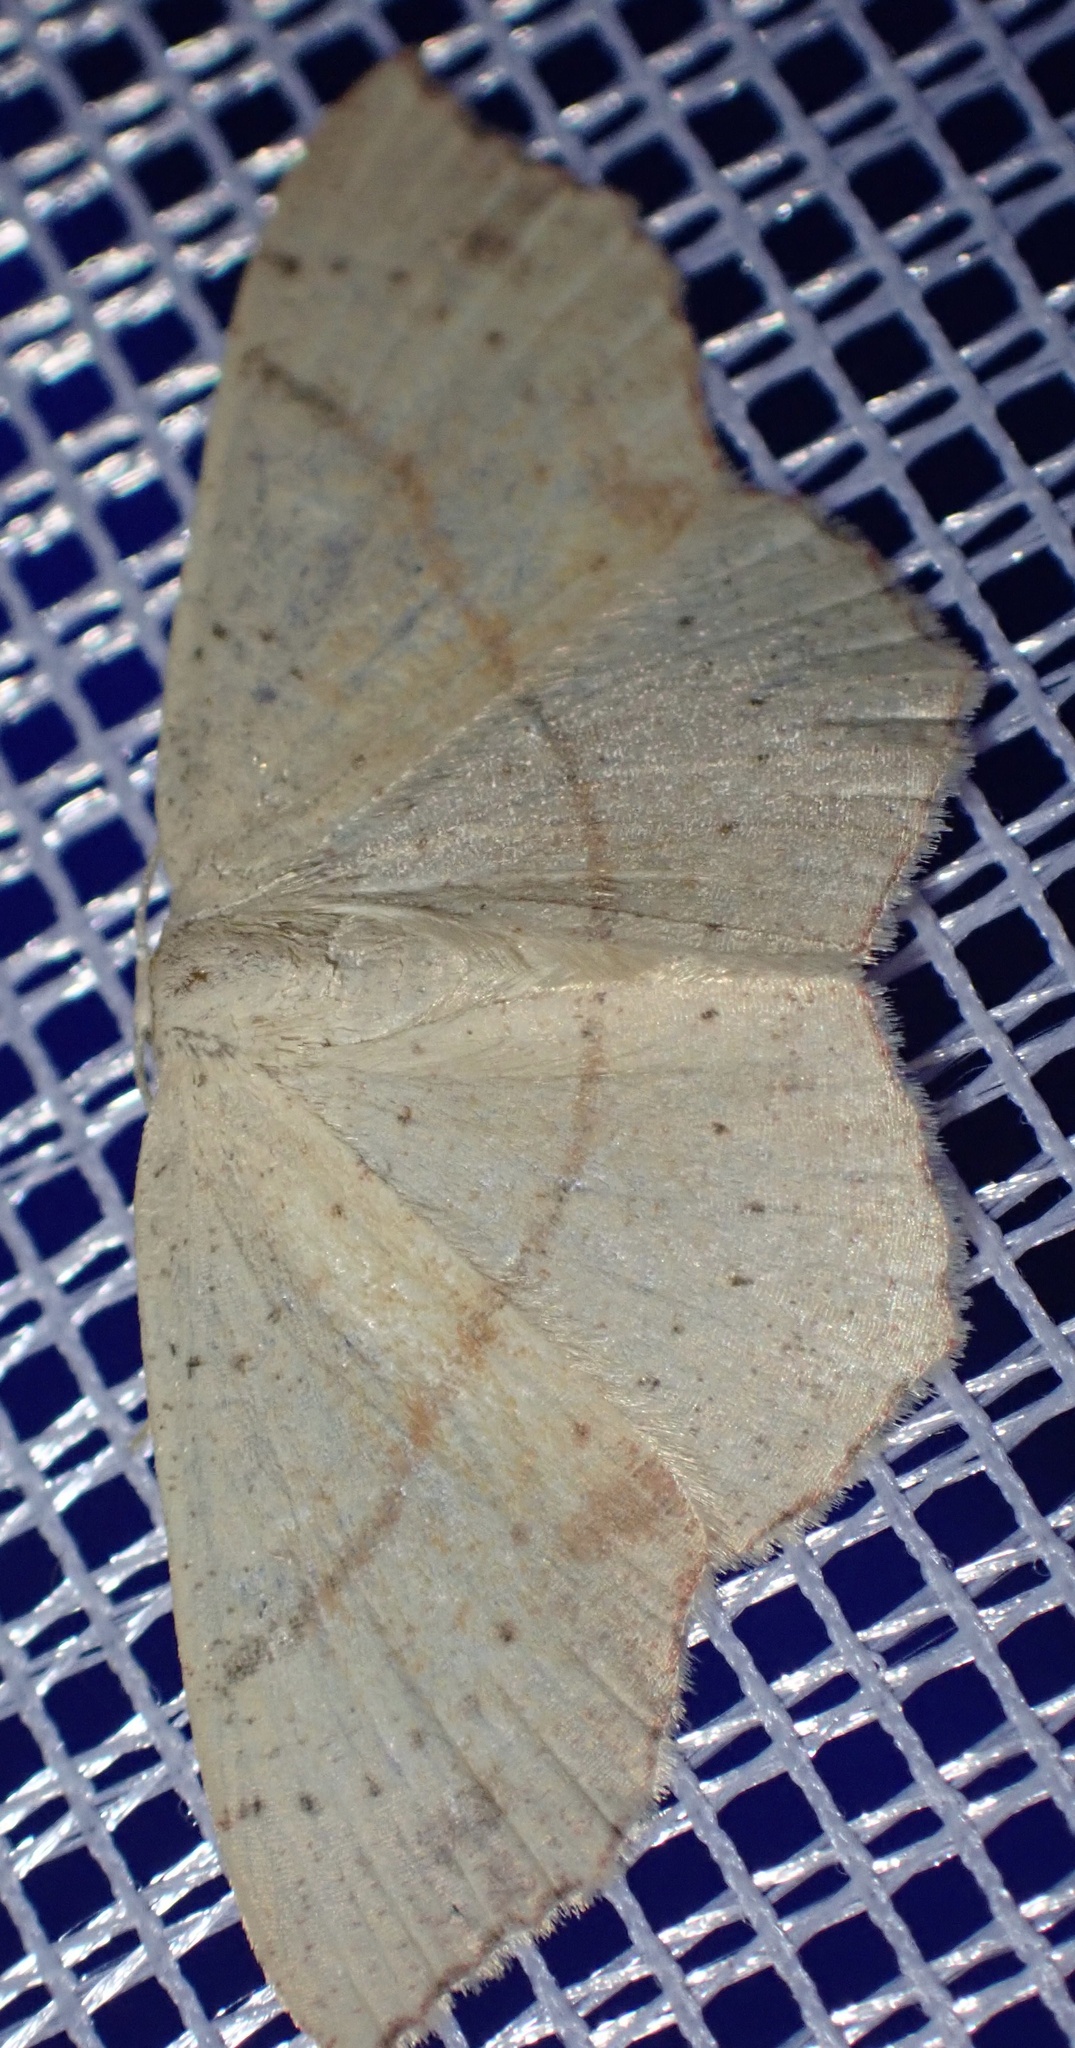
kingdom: Animalia
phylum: Arthropoda
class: Insecta
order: Lepidoptera
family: Geometridae
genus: Cyclophora
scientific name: Cyclophora punctaria
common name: Maiden's blush
